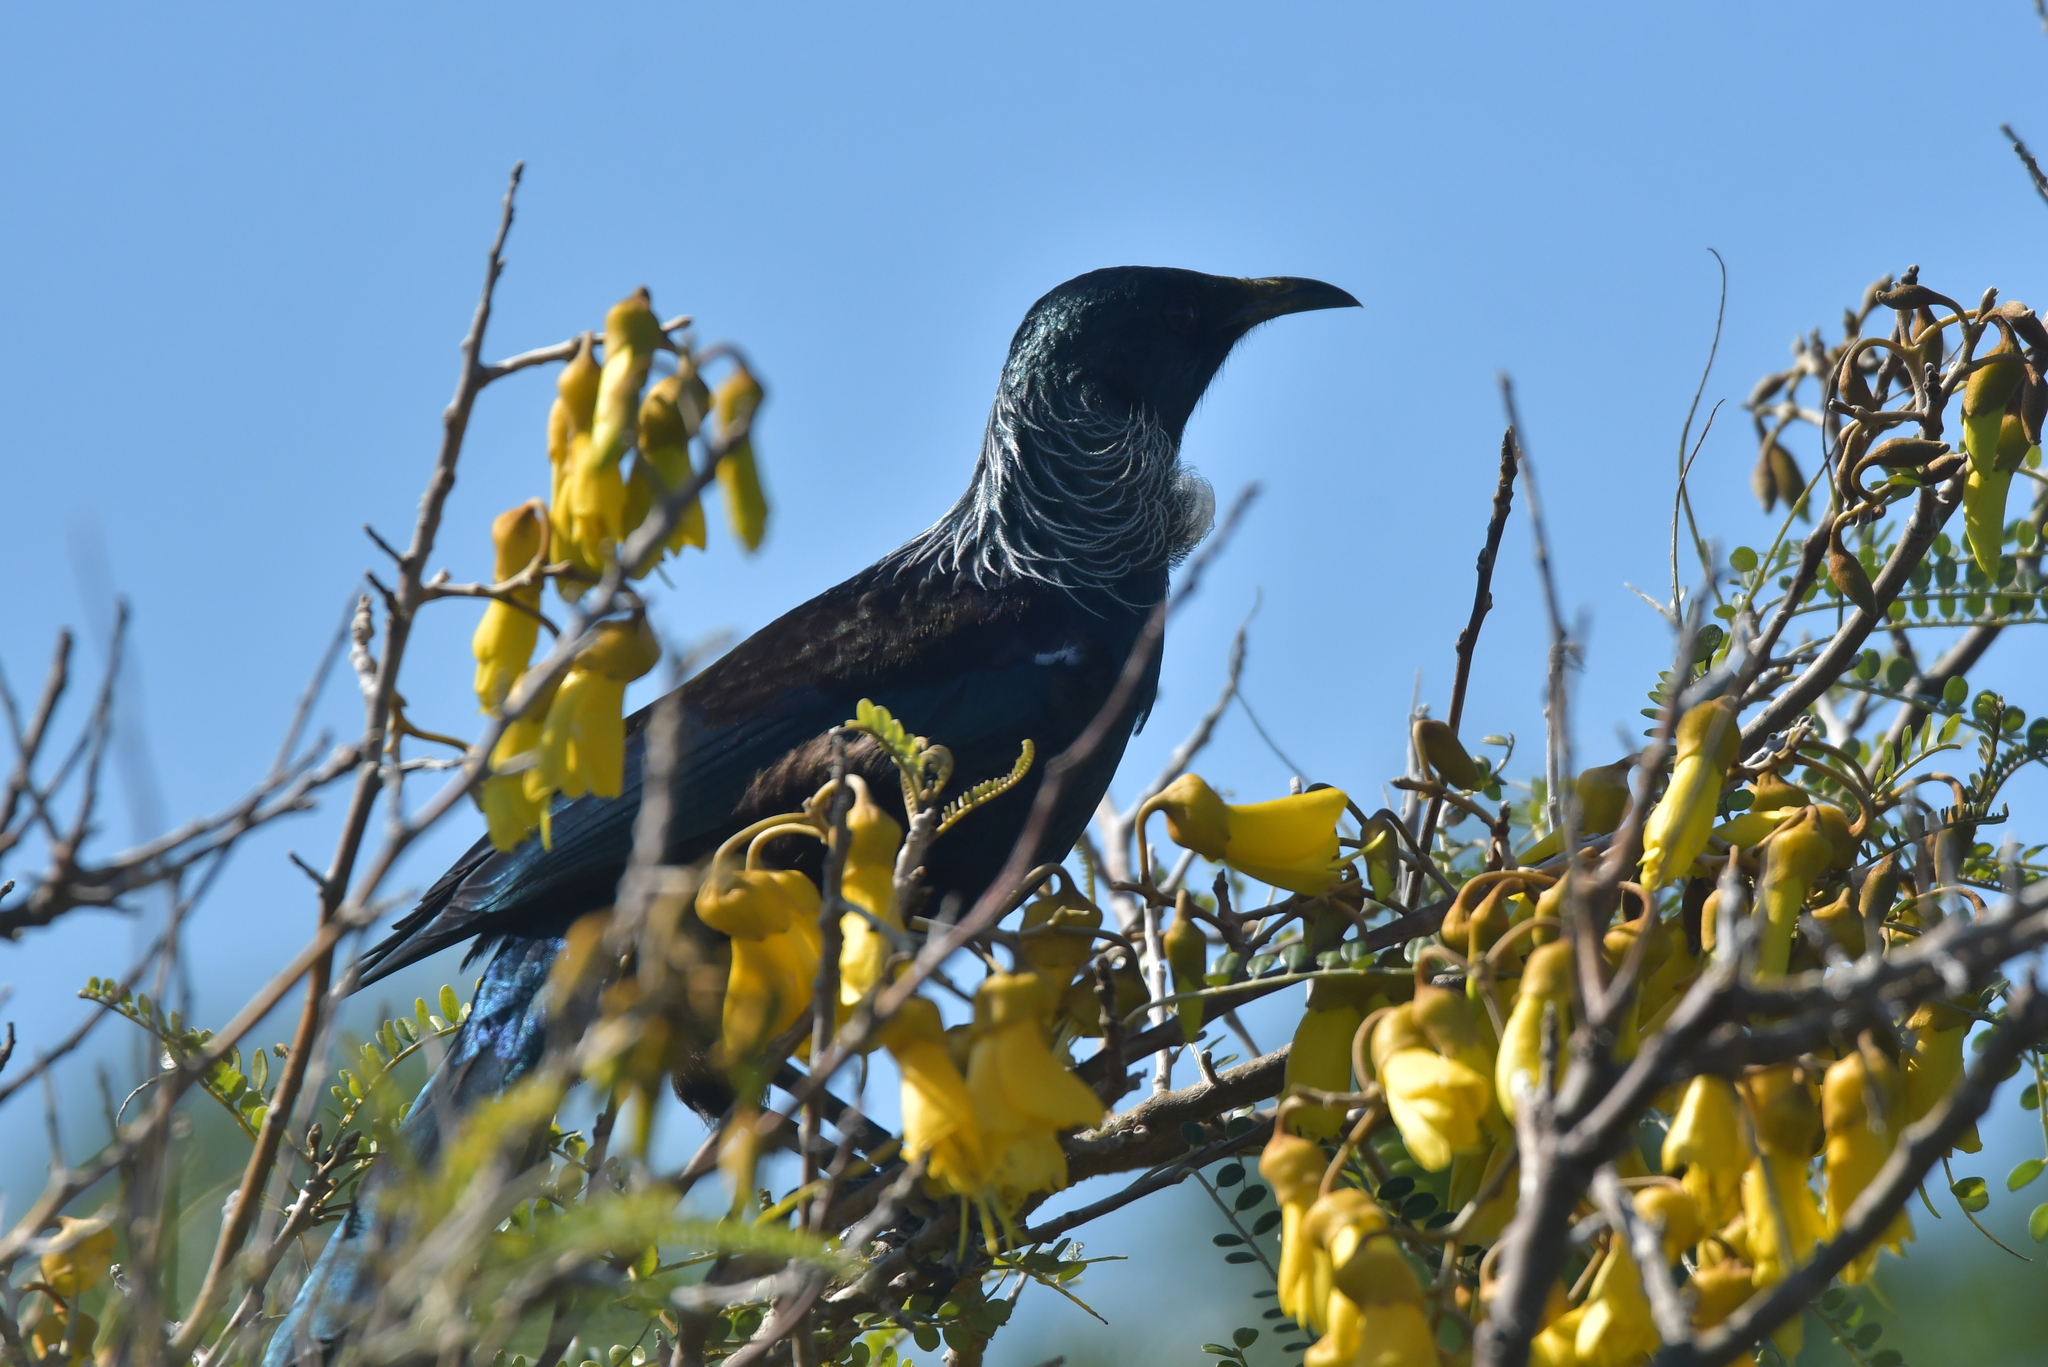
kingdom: Animalia
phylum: Chordata
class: Aves
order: Passeriformes
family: Meliphagidae
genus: Prosthemadera
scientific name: Prosthemadera novaeseelandiae
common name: Tui
